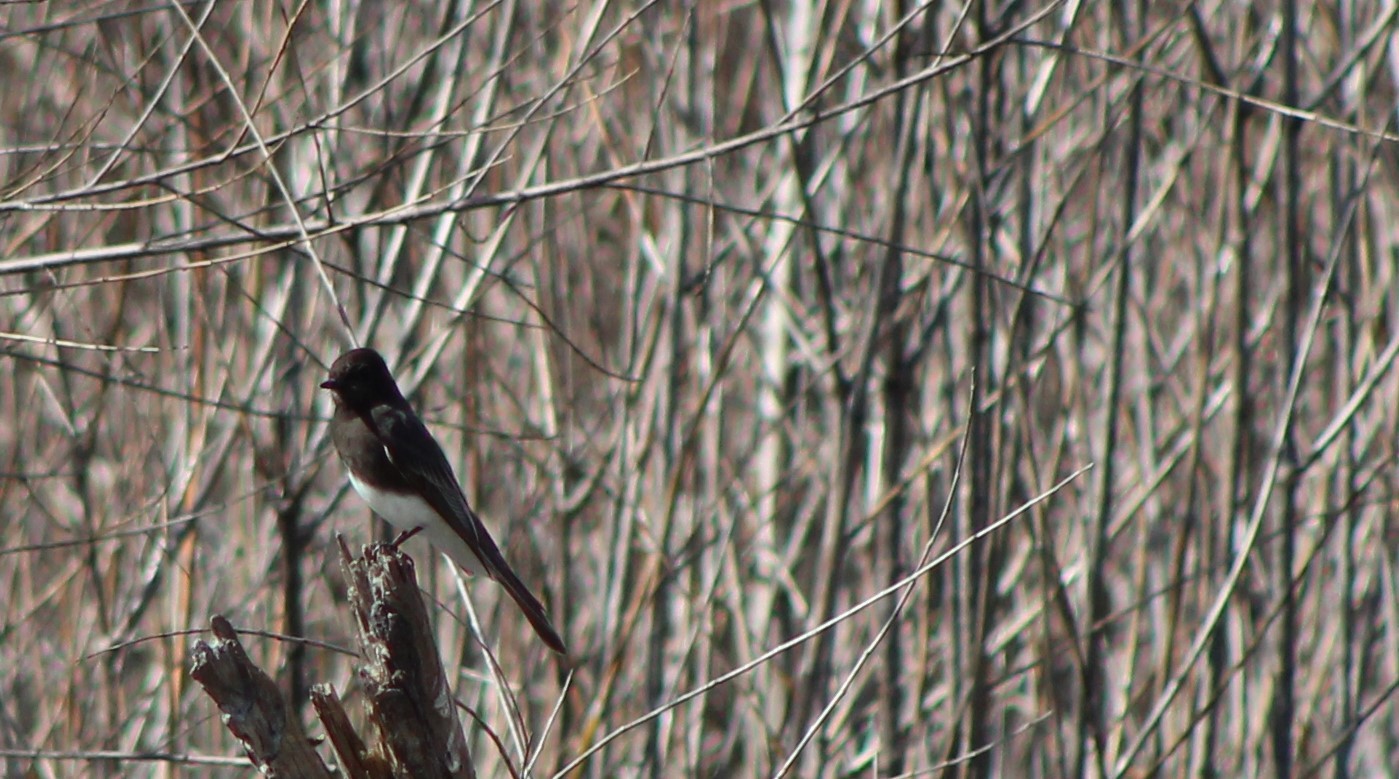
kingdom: Animalia
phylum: Chordata
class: Aves
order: Passeriformes
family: Tyrannidae
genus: Sayornis
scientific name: Sayornis nigricans
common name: Black phoebe
